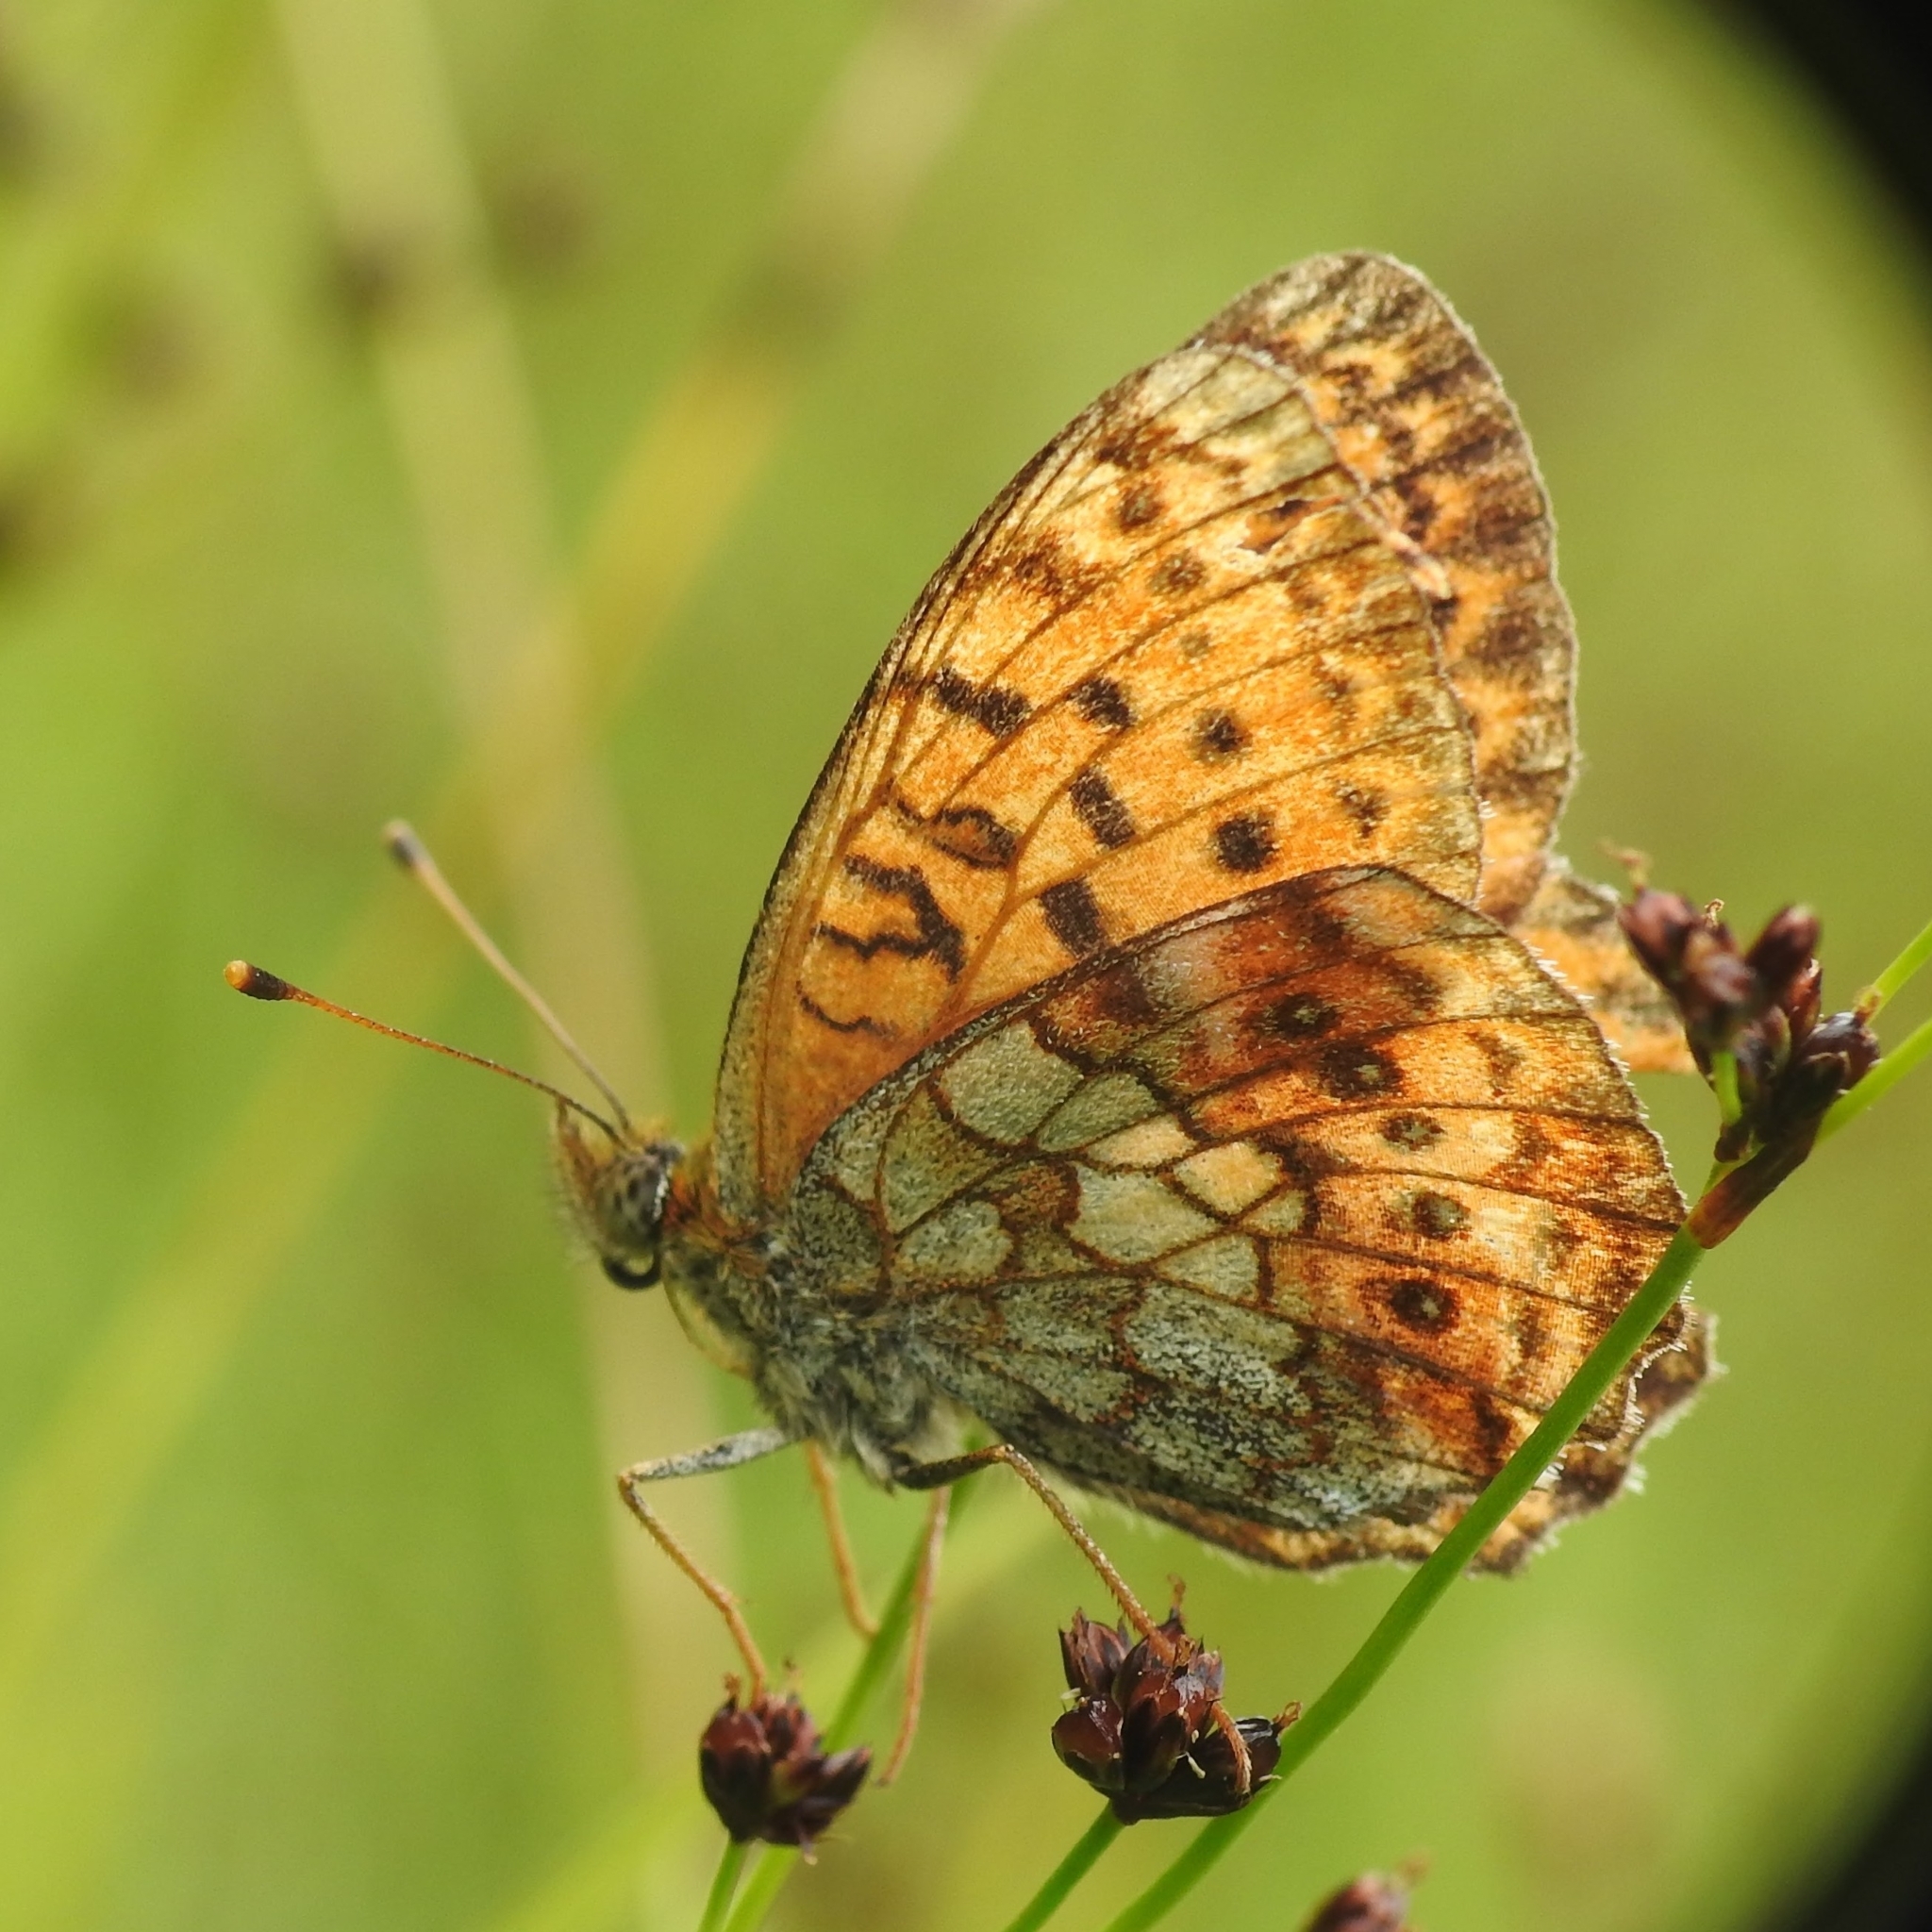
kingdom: Animalia
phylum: Arthropoda
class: Insecta
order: Lepidoptera
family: Nymphalidae
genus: Brenthis
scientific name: Brenthis ino
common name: Lesser marbled fritillary
